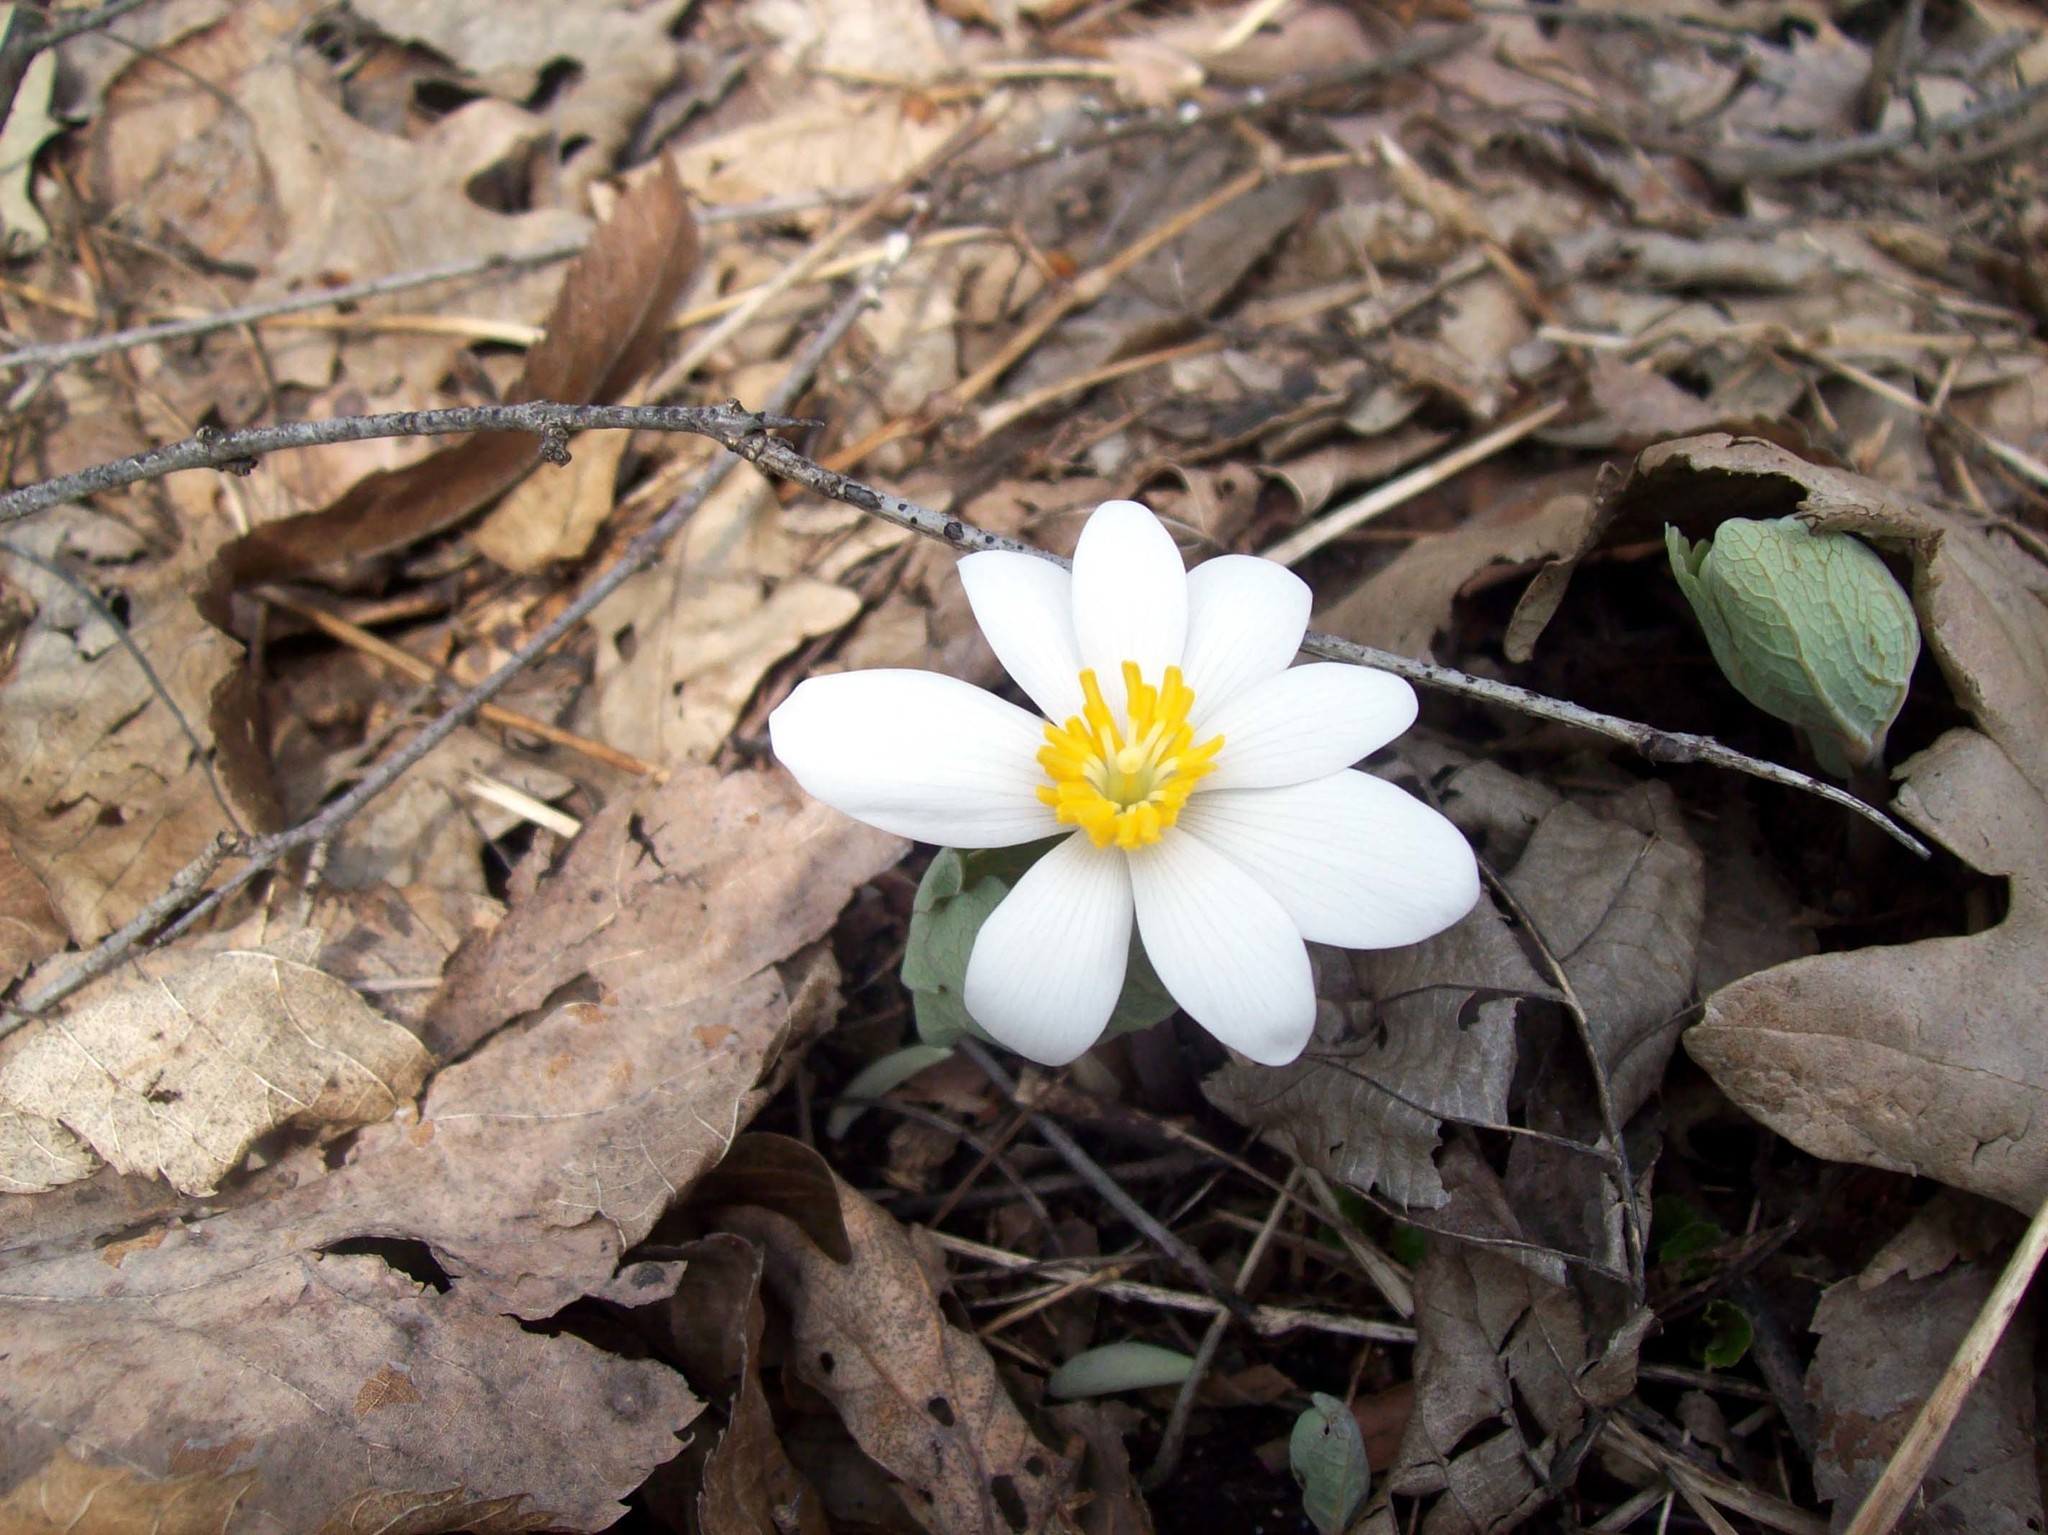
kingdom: Plantae
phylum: Tracheophyta
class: Magnoliopsida
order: Ranunculales
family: Papaveraceae
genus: Sanguinaria
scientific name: Sanguinaria canadensis
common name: Bloodroot
